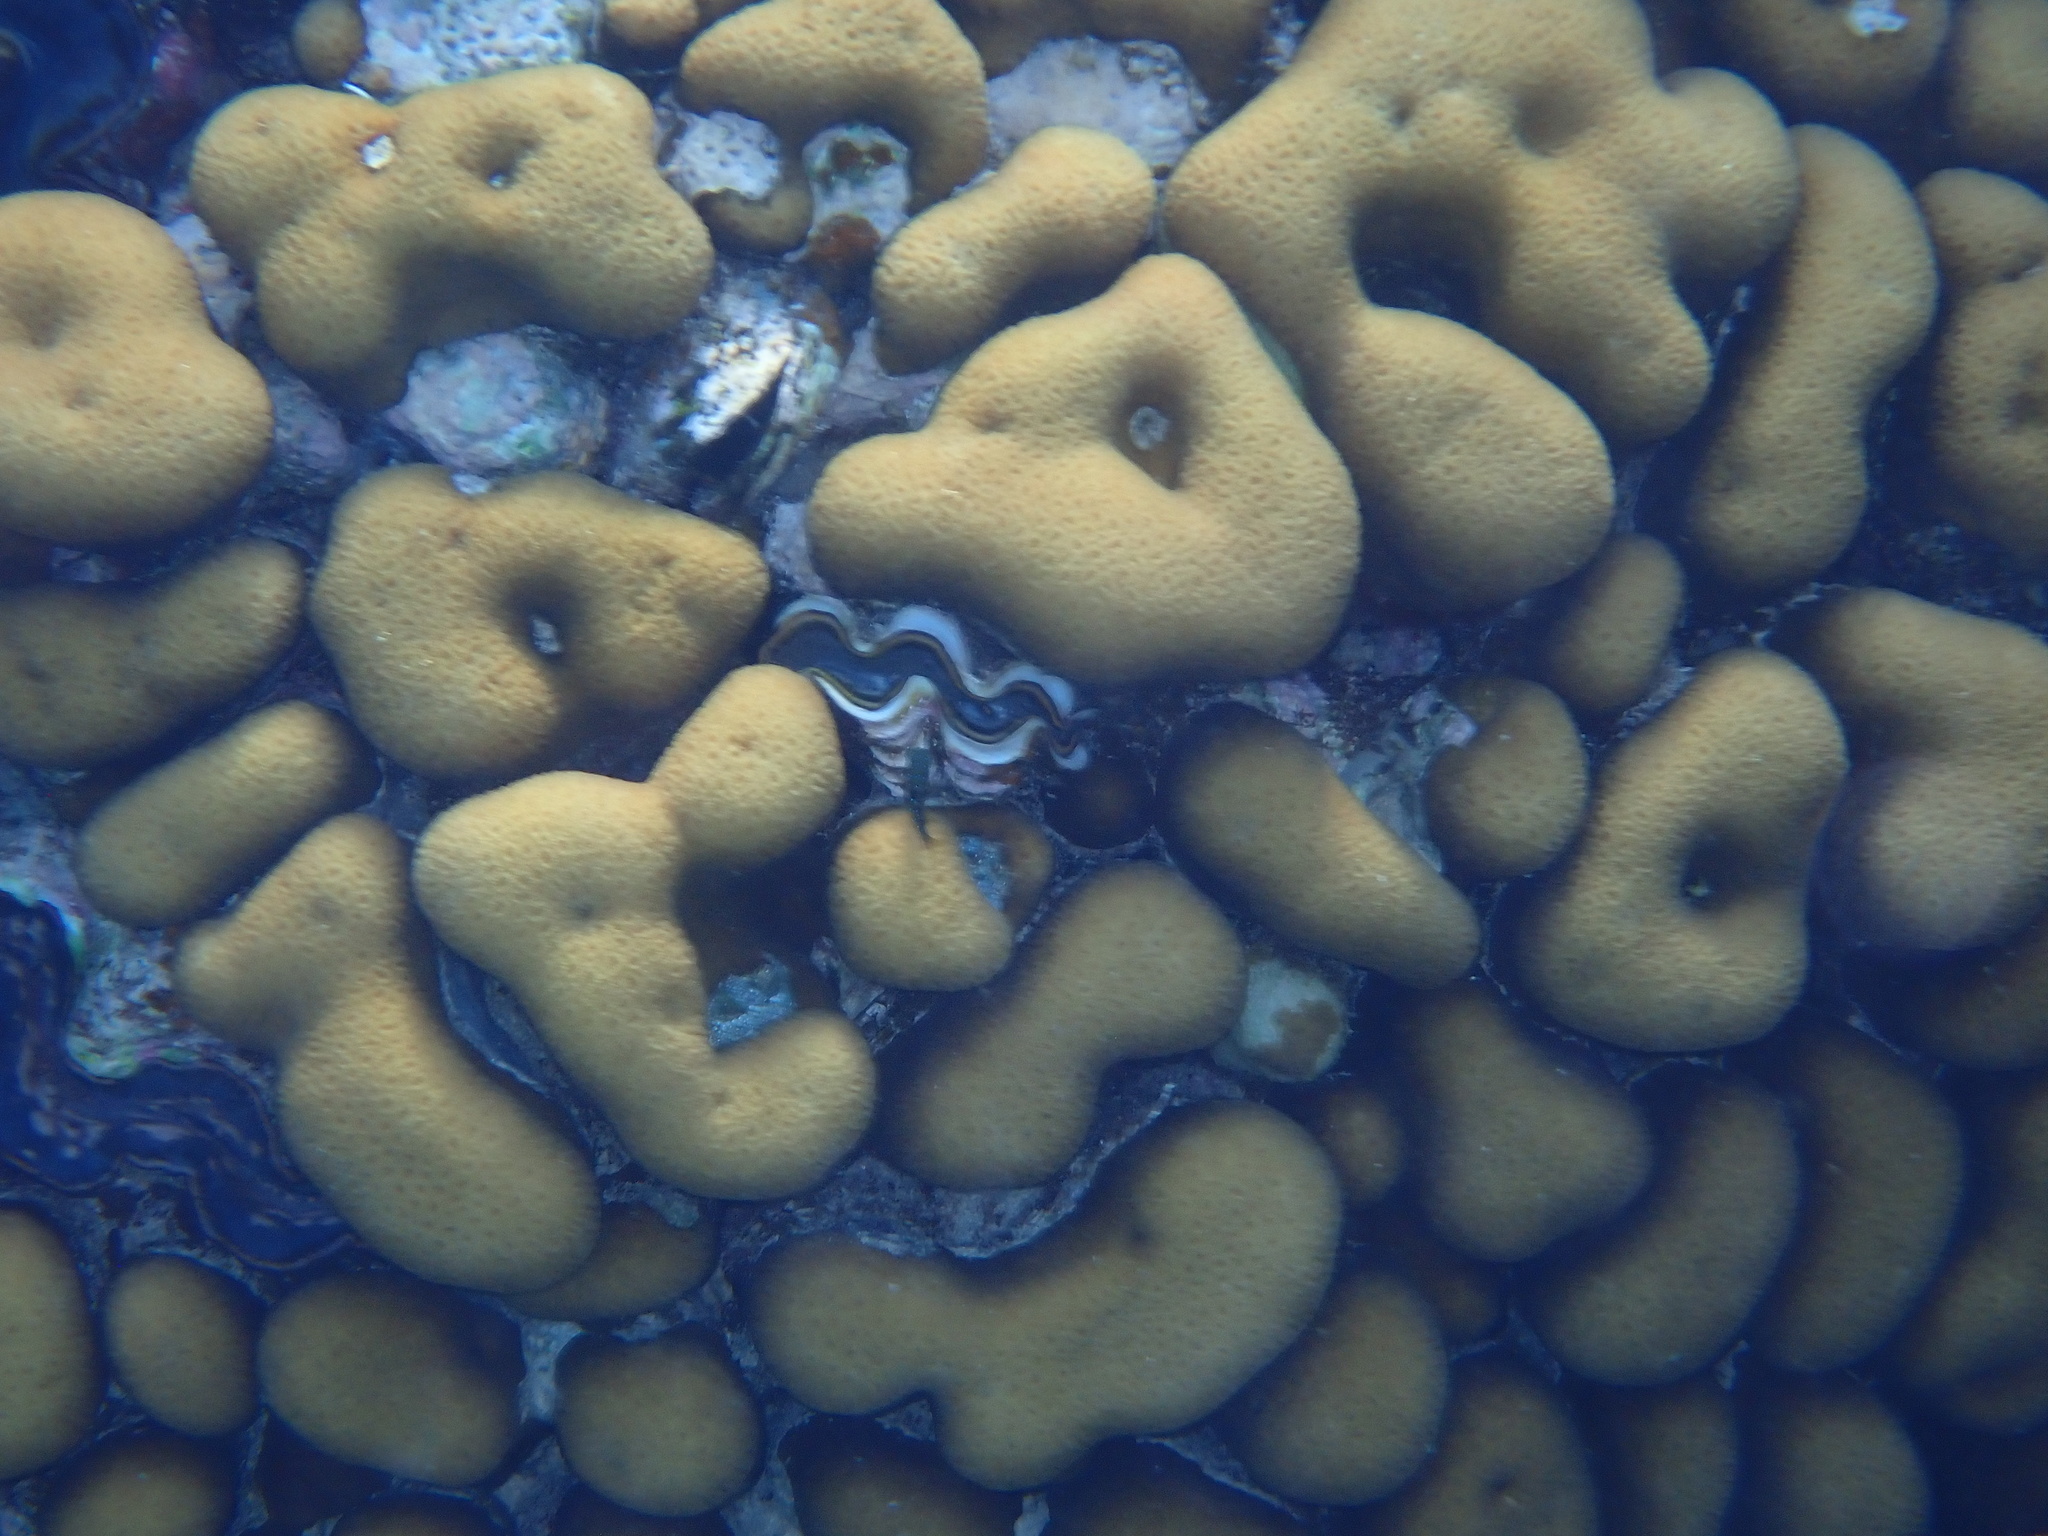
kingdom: Animalia
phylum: Cnidaria
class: Anthozoa
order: Scleractinia
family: Merulinidae
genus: Goniastrea
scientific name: Goniastrea stelligera
